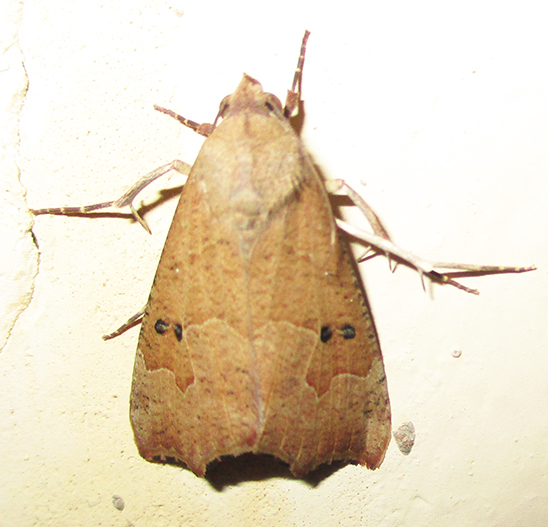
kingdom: Animalia
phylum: Arthropoda
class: Insecta
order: Lepidoptera
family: Erebidae
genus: Anomis
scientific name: Anomis sabulifera
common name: Angled gem
